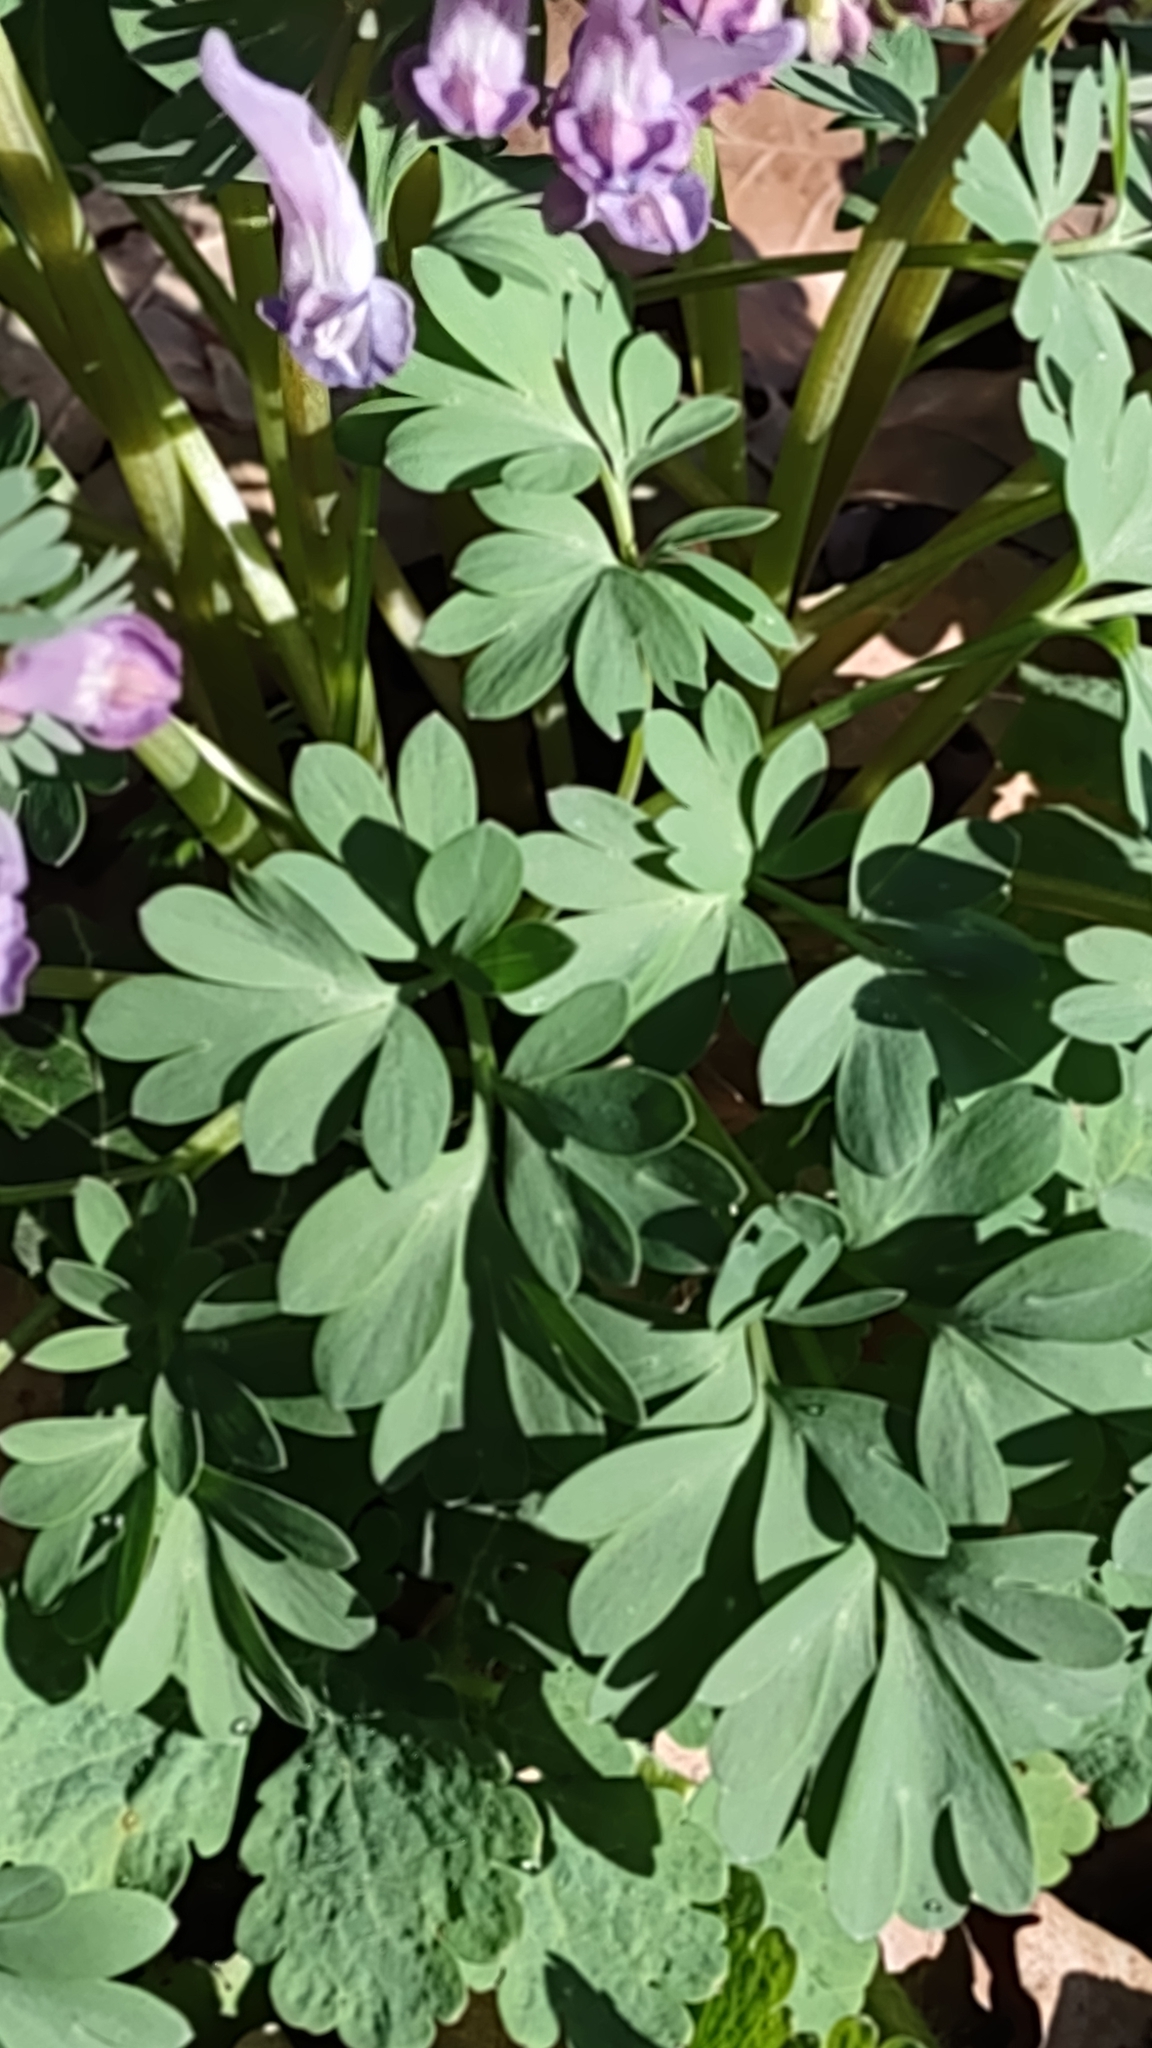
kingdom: Plantae
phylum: Tracheophyta
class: Magnoliopsida
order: Ranunculales
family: Papaveraceae
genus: Corydalis
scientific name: Corydalis solida
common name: Bird-in-a-bush
